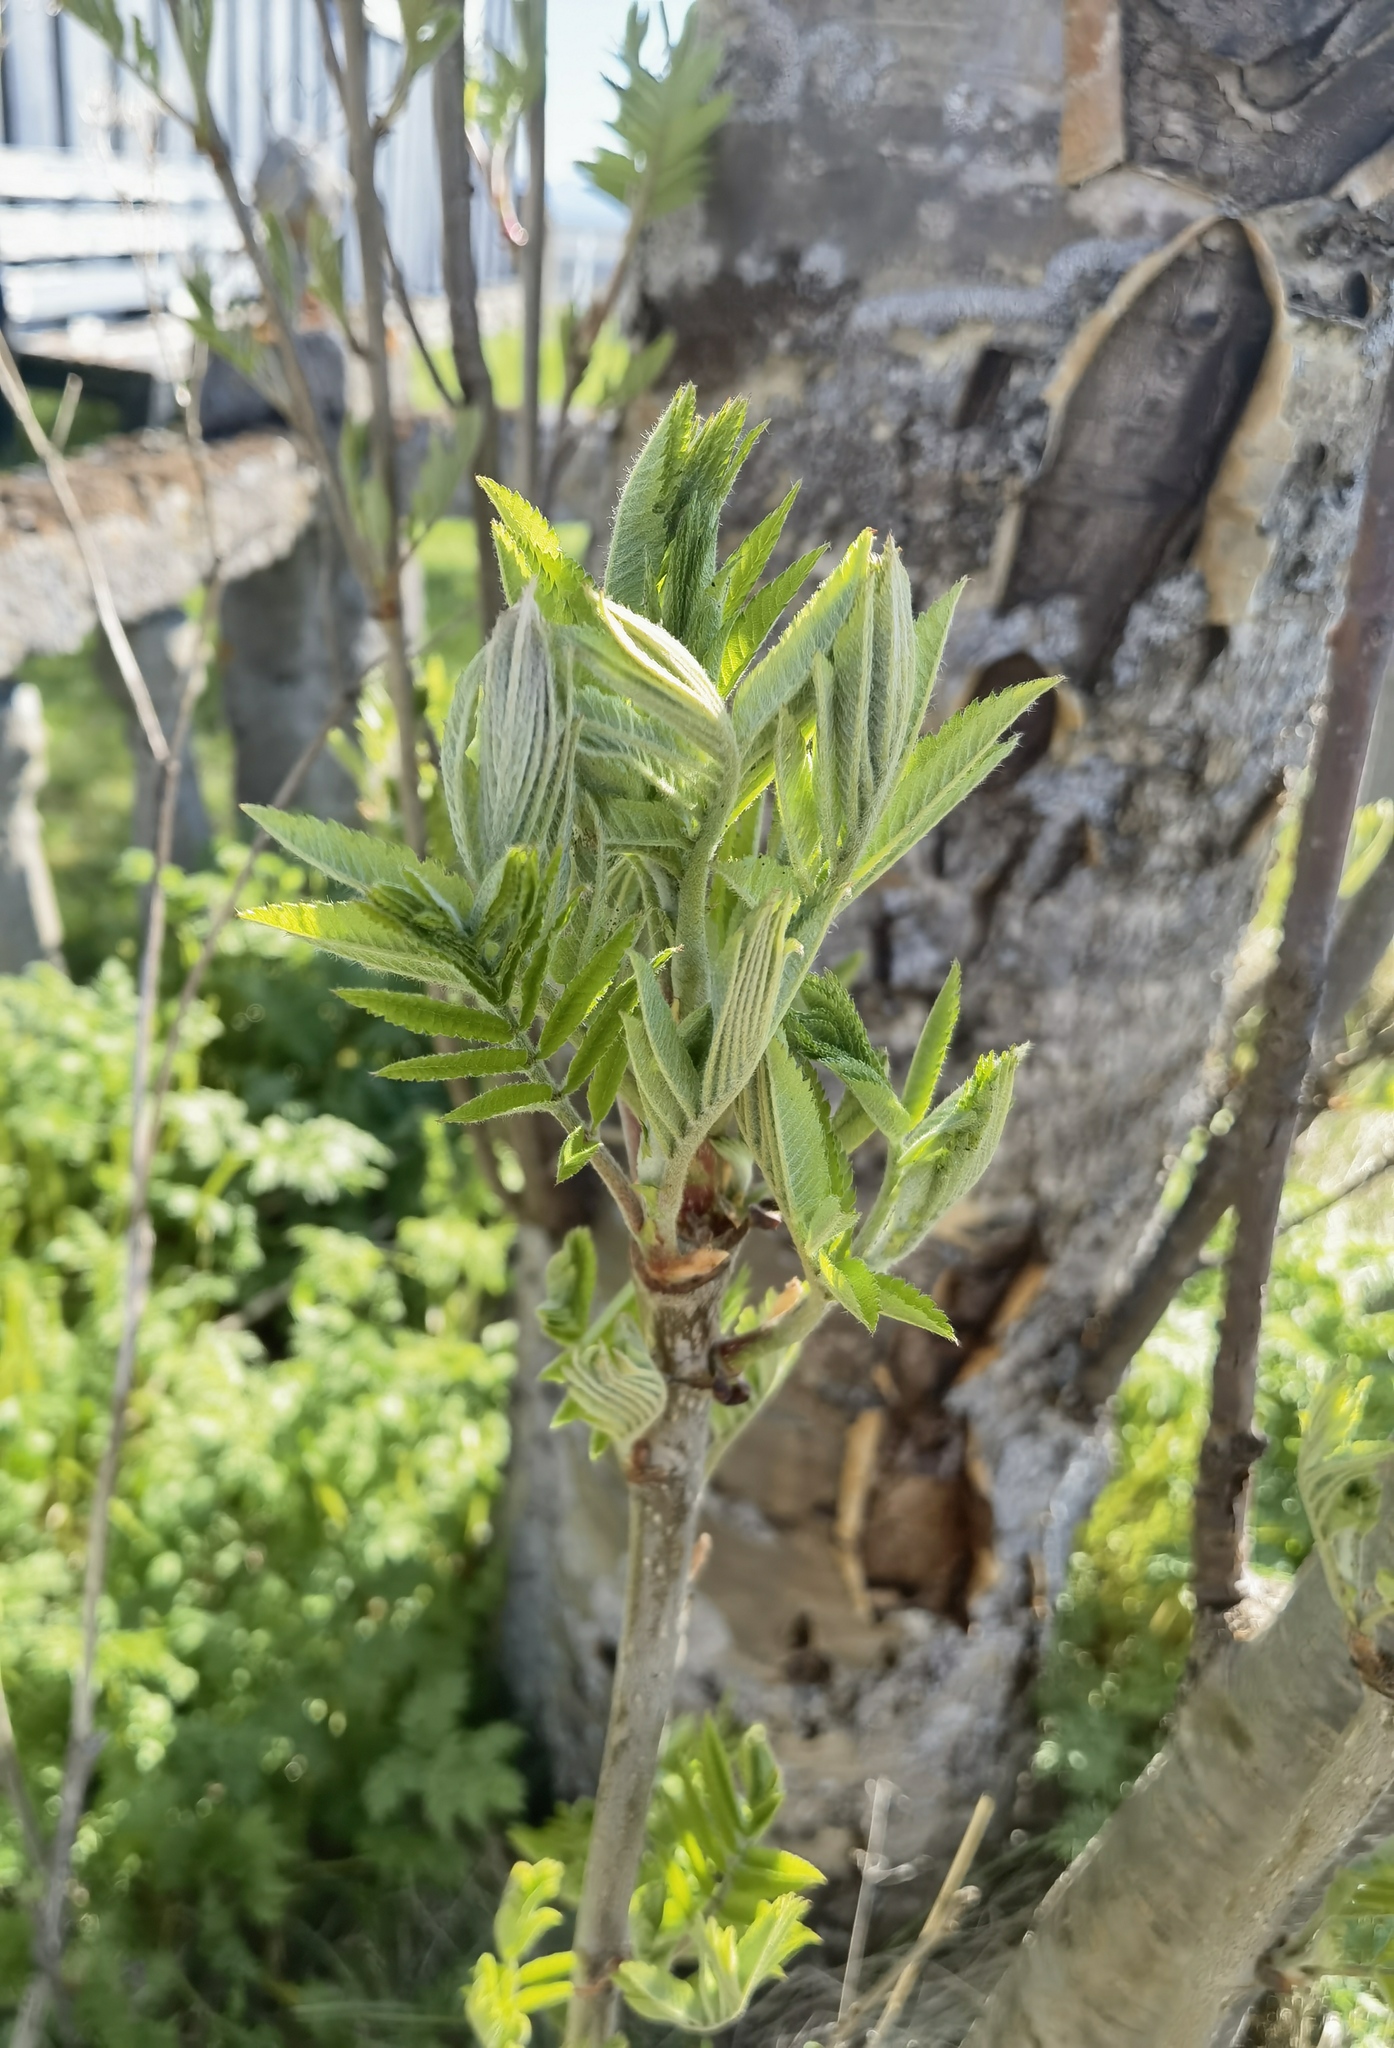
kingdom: Plantae
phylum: Tracheophyta
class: Magnoliopsida
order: Rosales
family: Rosaceae
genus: Sorbus
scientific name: Sorbus aucuparia
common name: Rowan
